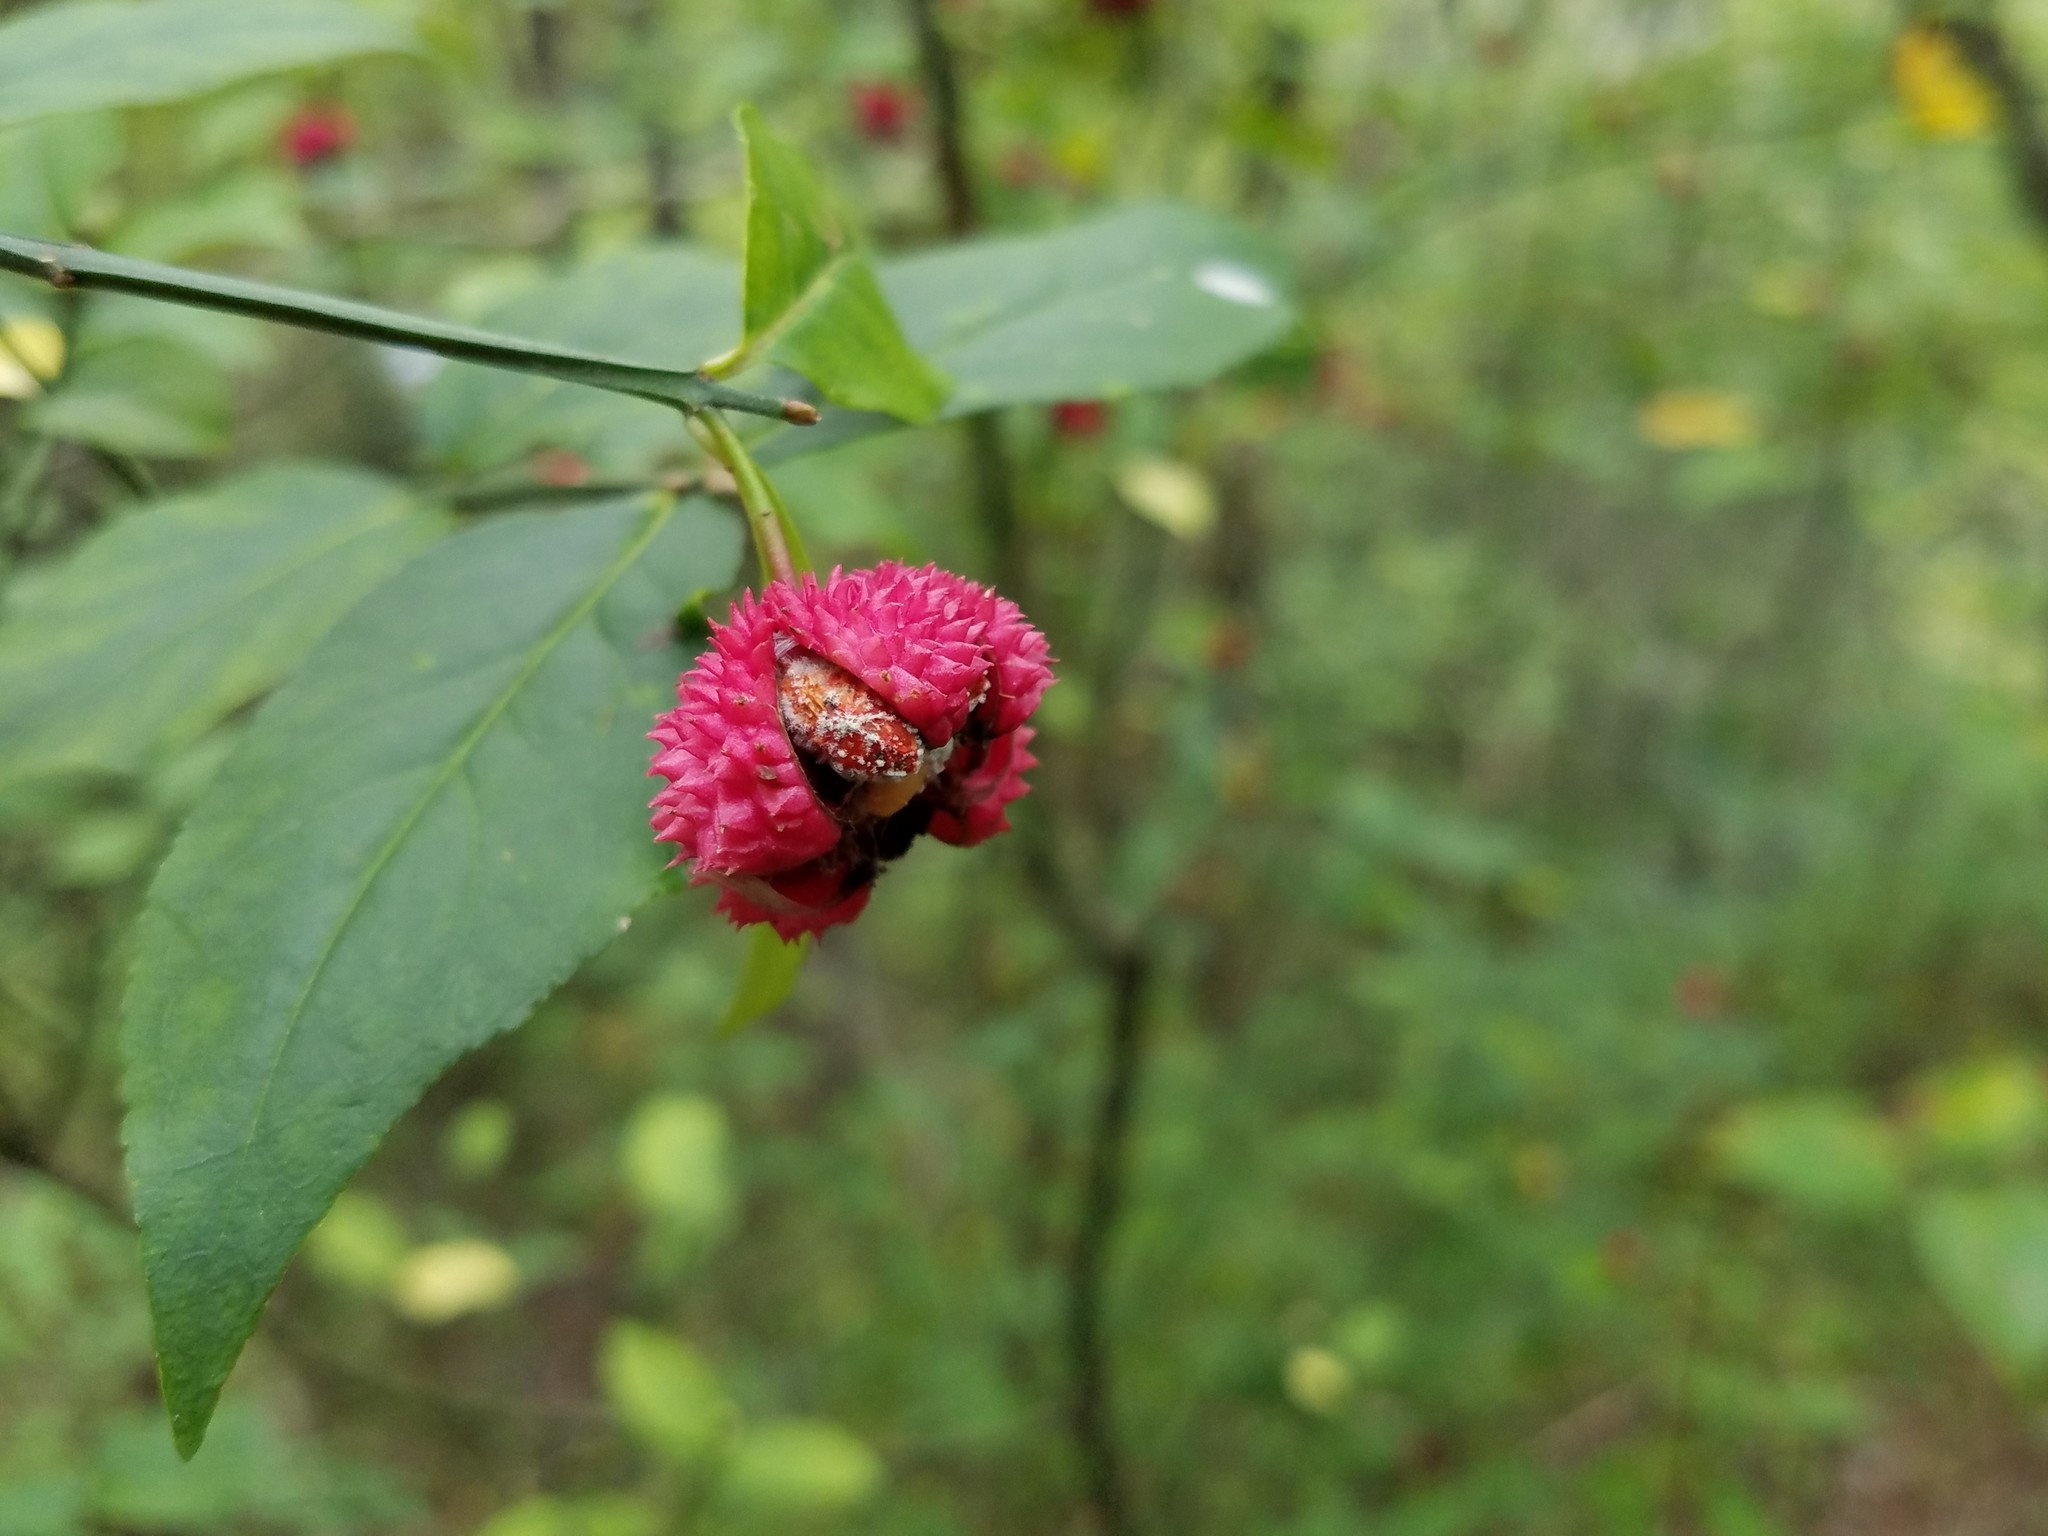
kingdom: Plantae
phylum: Tracheophyta
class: Magnoliopsida
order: Celastrales
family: Celastraceae
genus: Euonymus
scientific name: Euonymus americanus
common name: Bursting-heart
